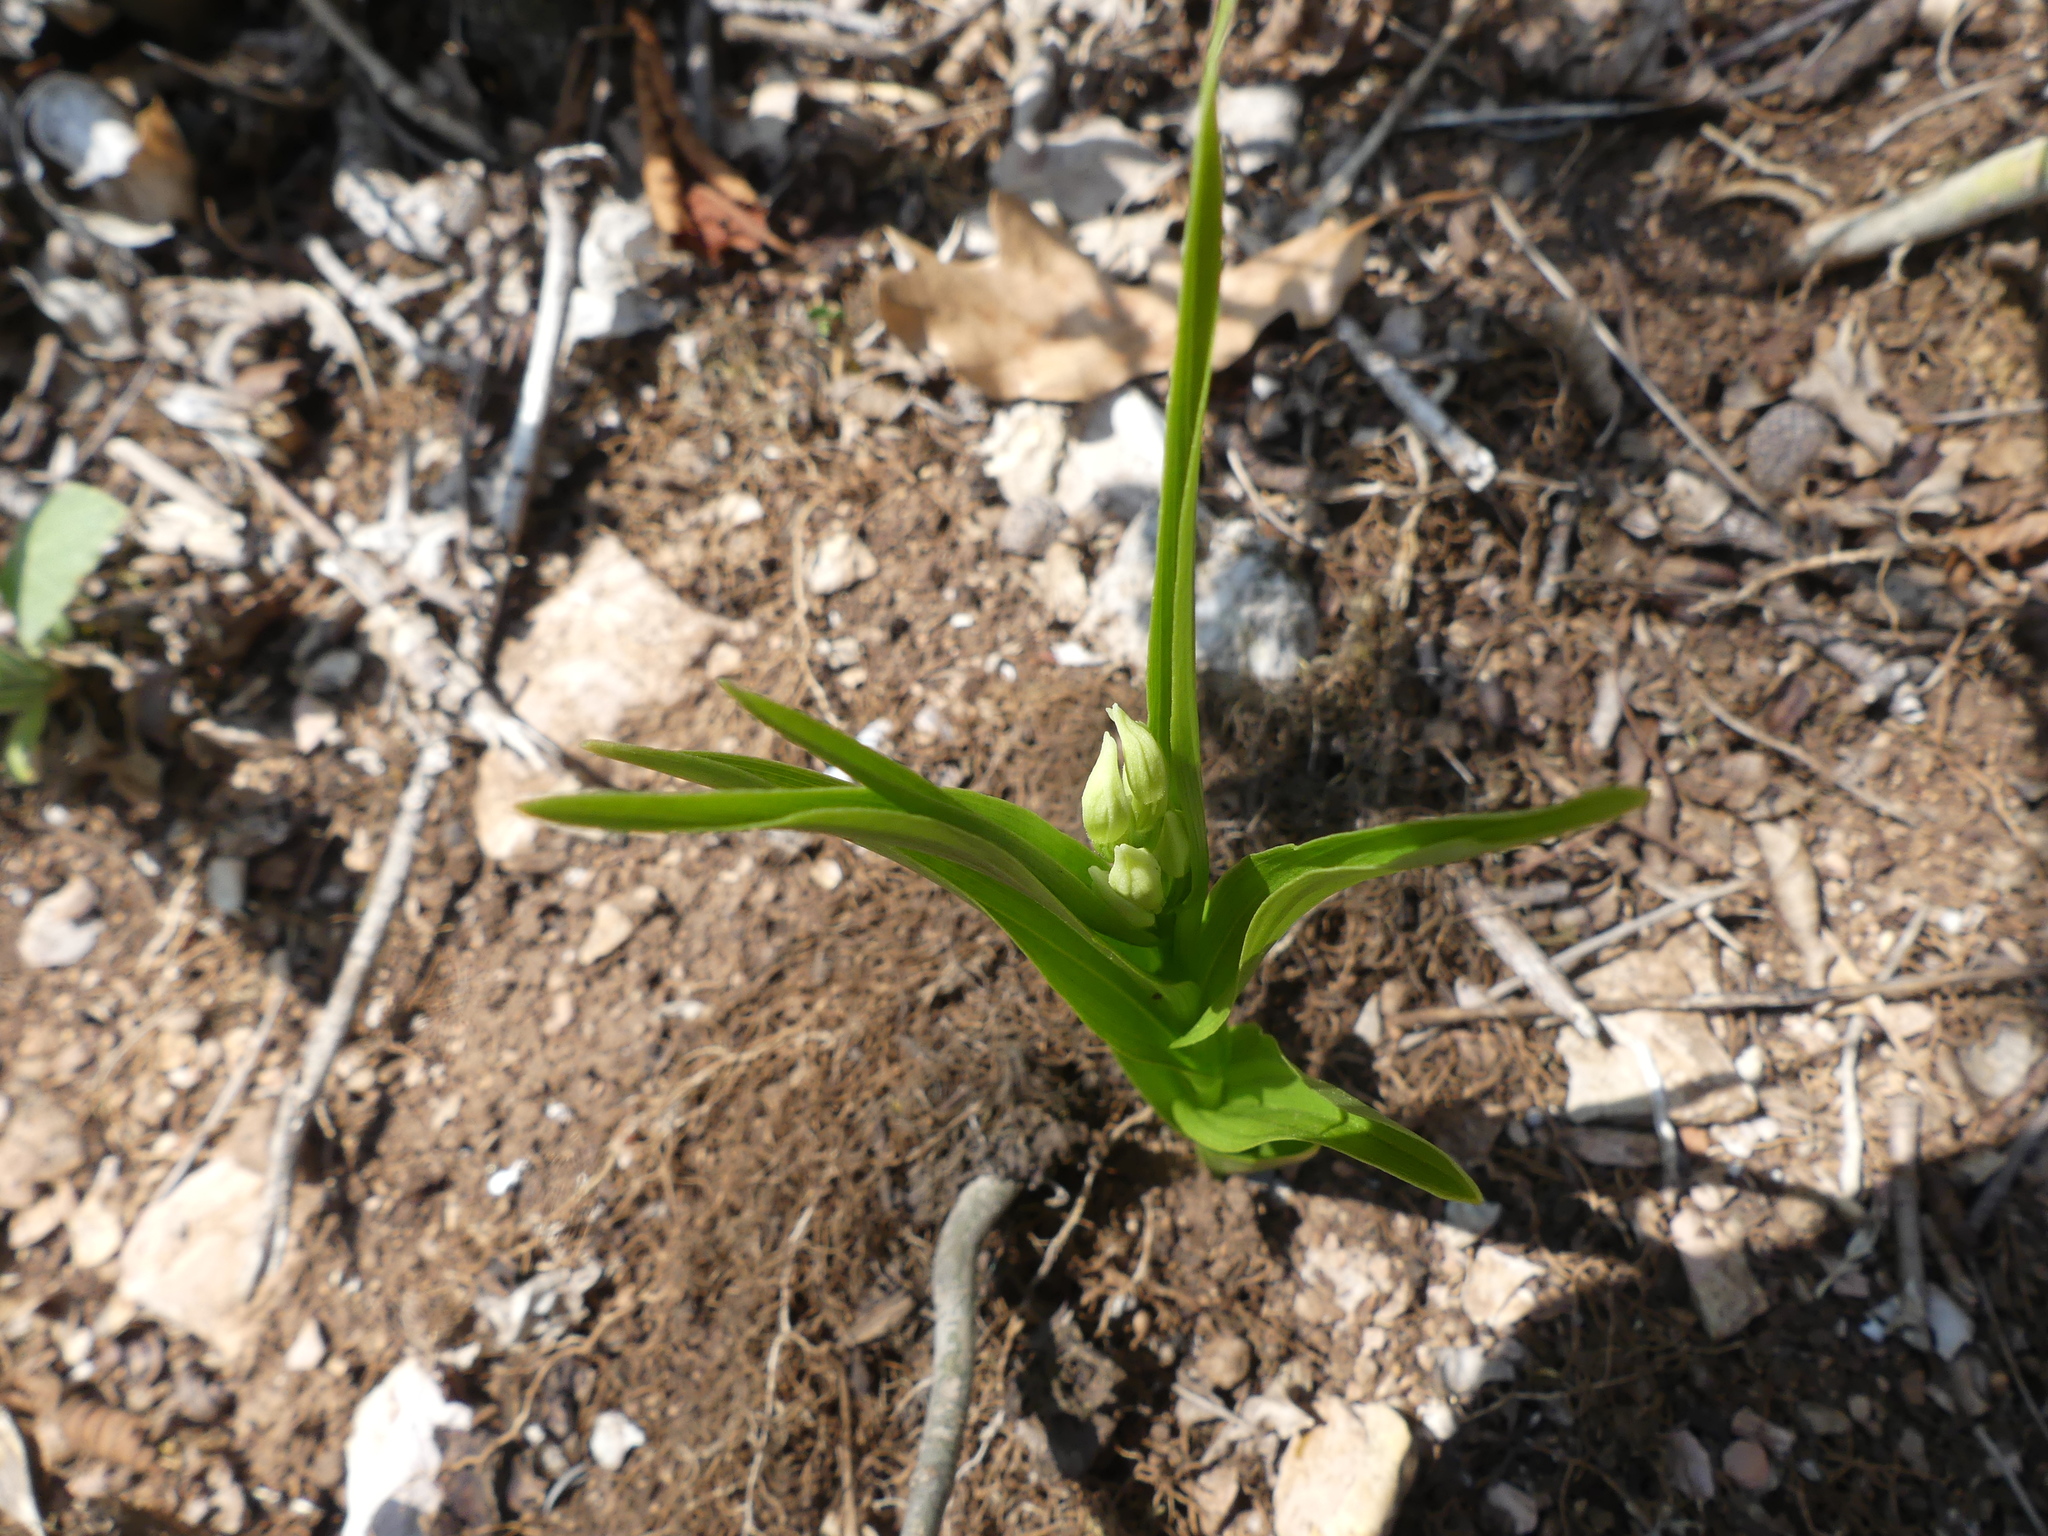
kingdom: Plantae
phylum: Tracheophyta
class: Liliopsida
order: Asparagales
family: Orchidaceae
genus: Cephalanthera
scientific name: Cephalanthera longifolia
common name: Narrow-leaved helleborine
